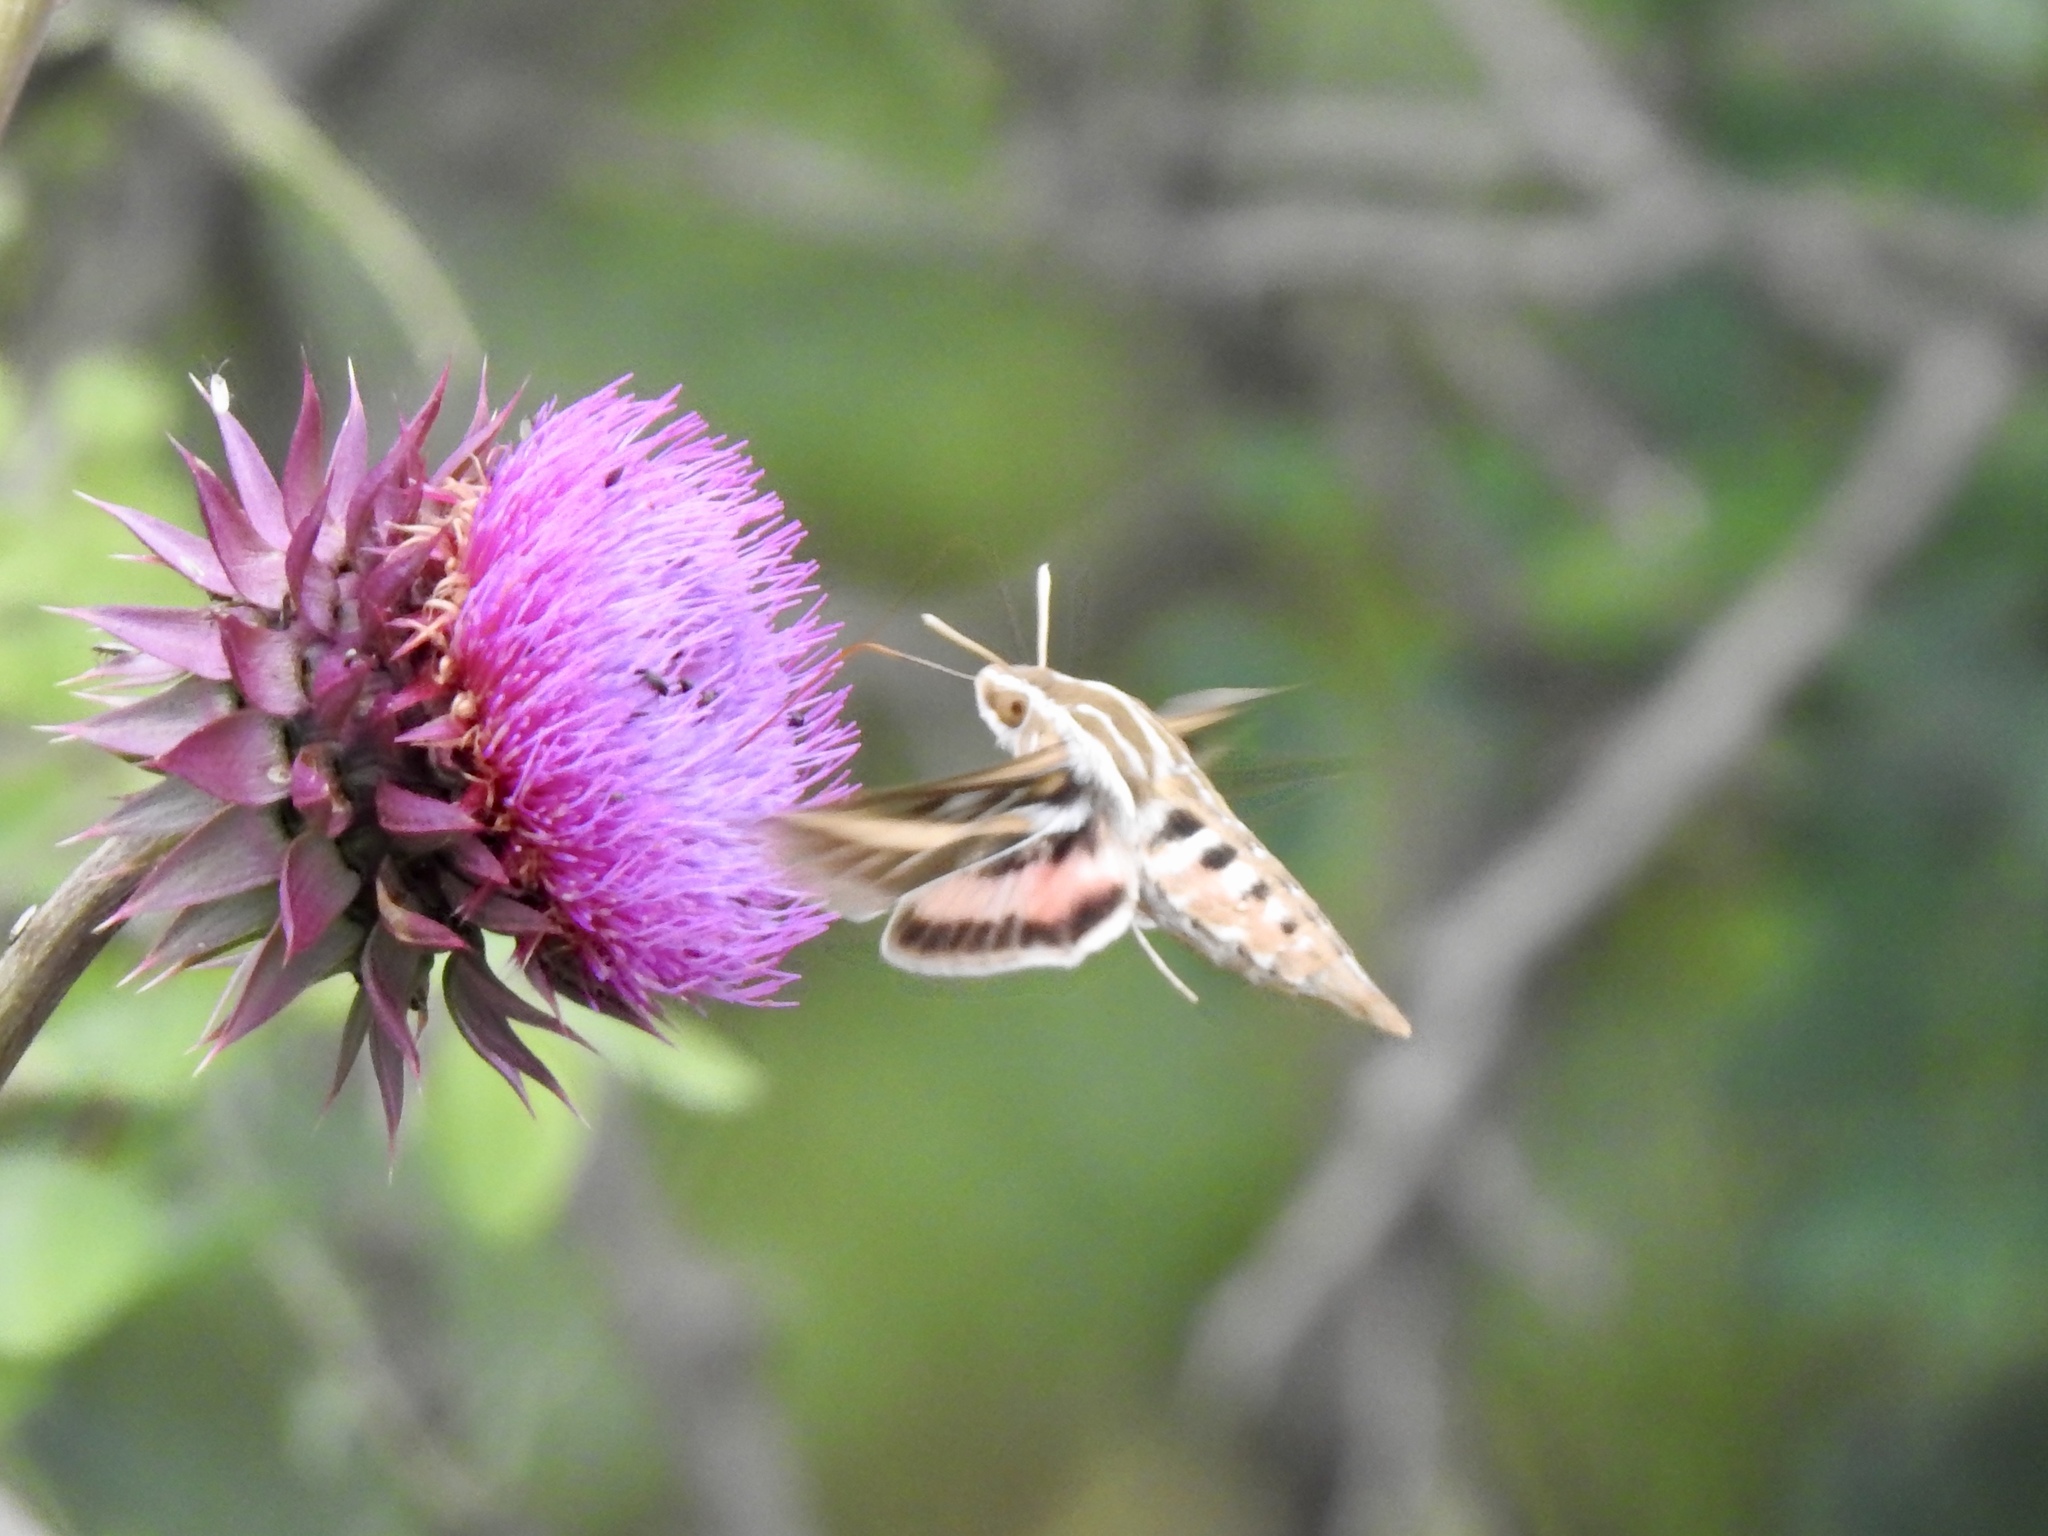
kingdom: Animalia
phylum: Arthropoda
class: Insecta
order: Lepidoptera
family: Sphingidae
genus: Hyles
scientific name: Hyles lineata
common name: White-lined sphinx
